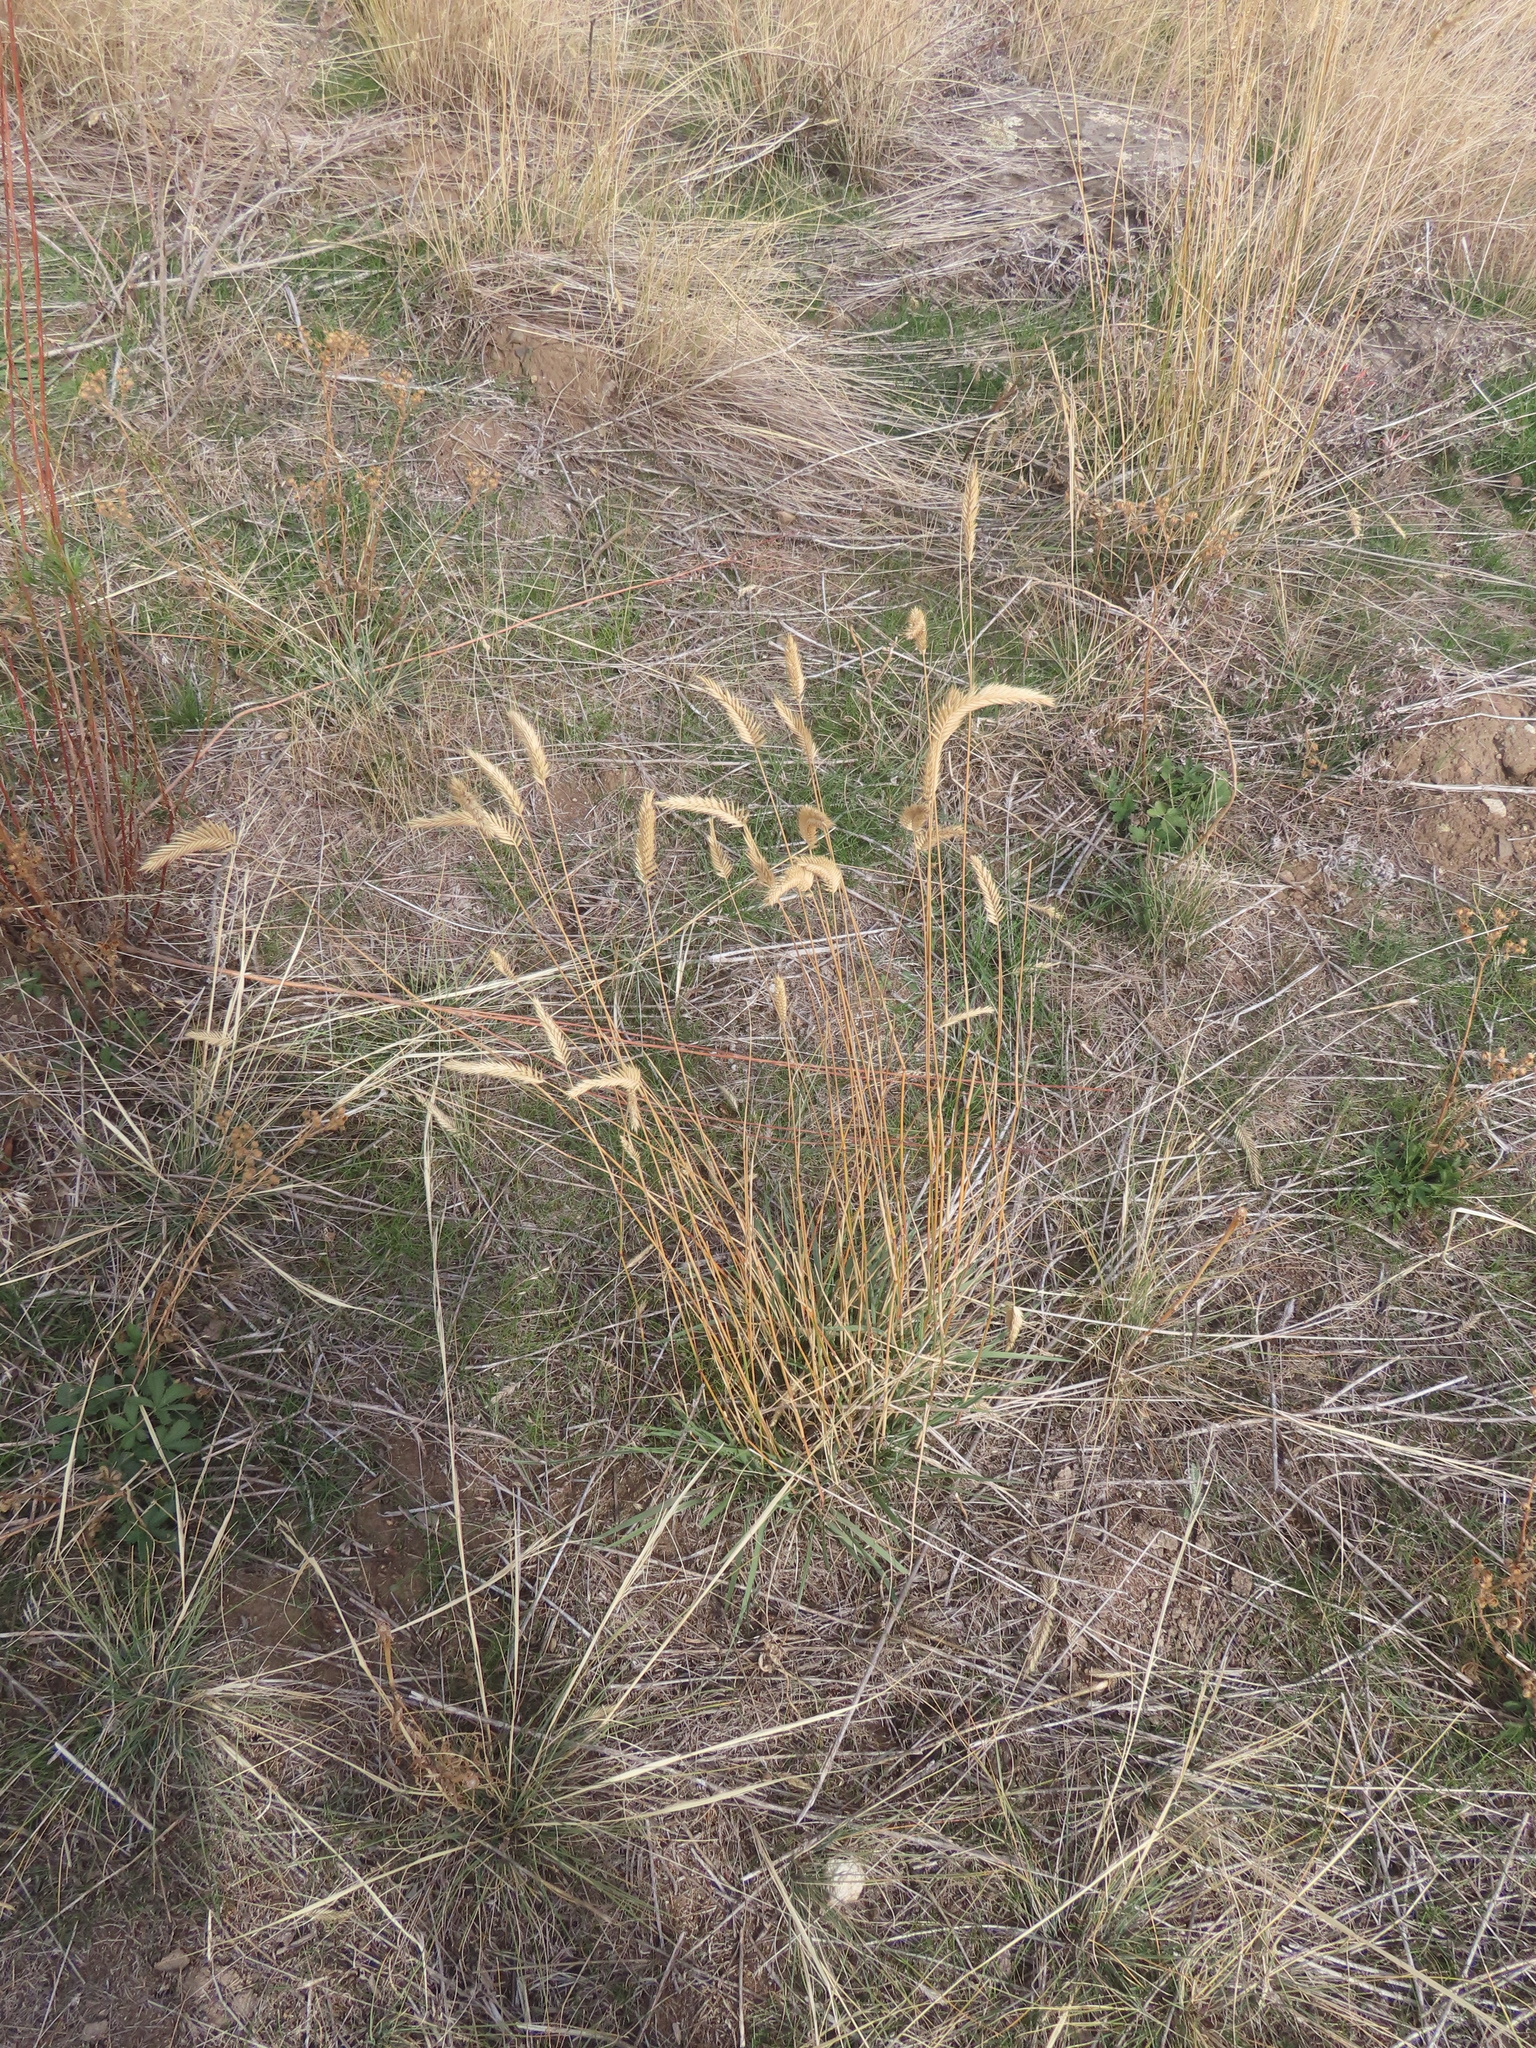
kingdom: Plantae
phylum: Tracheophyta
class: Liliopsida
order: Poales
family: Poaceae
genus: Agropyron
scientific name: Agropyron cristatum
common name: Crested wheatgrass
